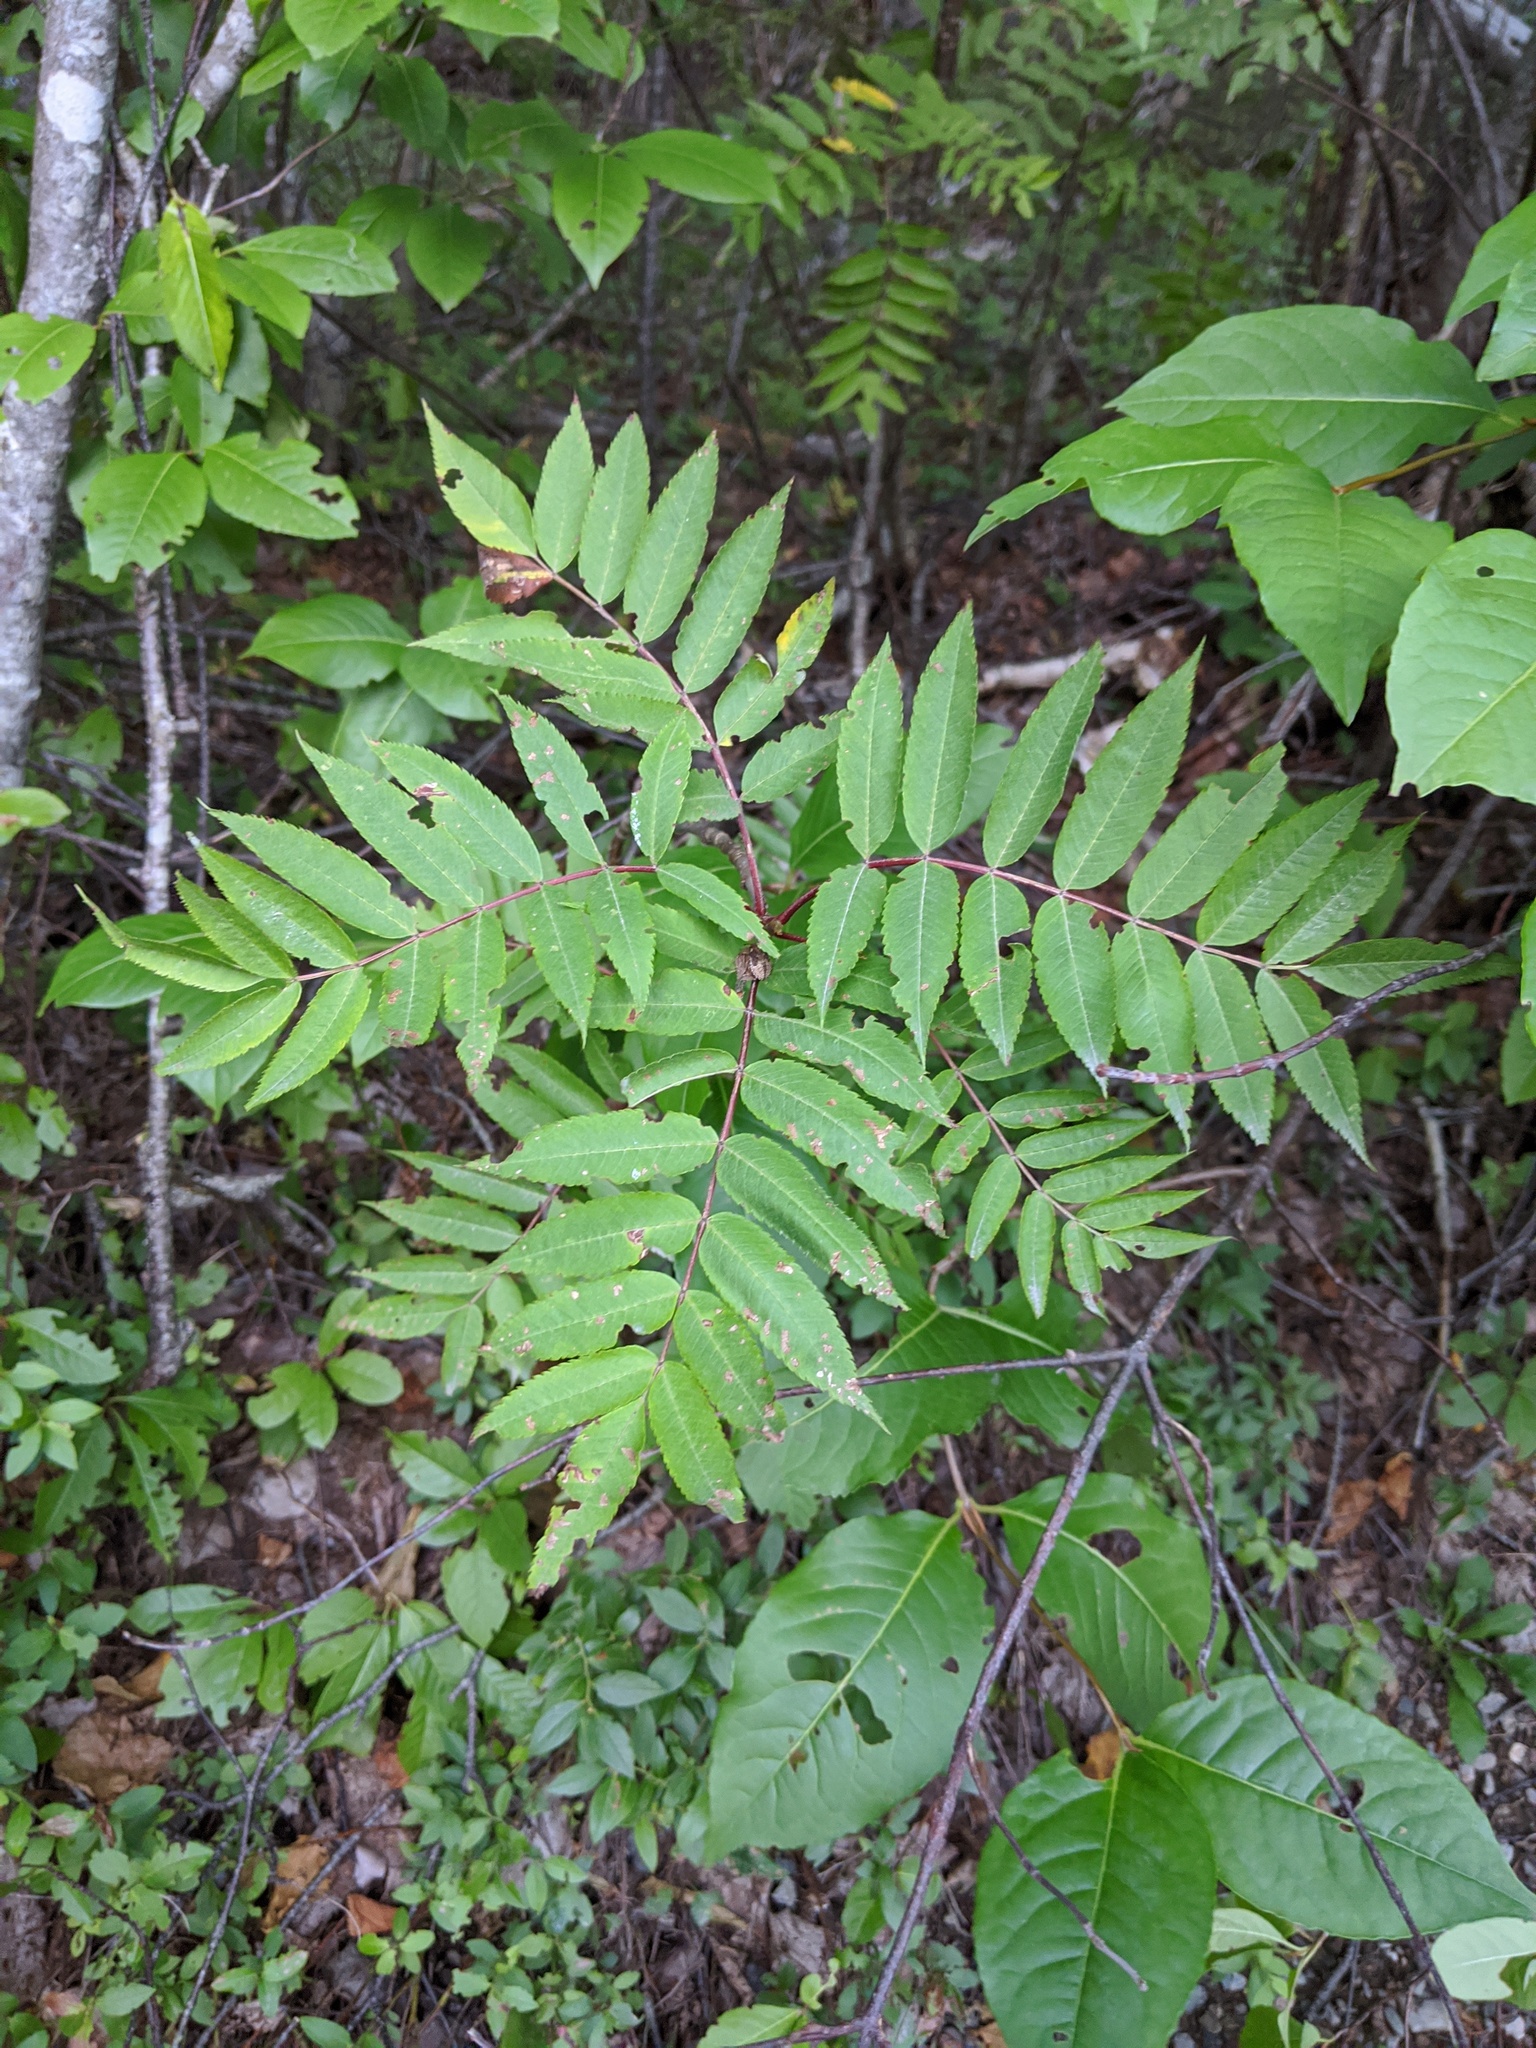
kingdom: Plantae
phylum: Tracheophyta
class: Magnoliopsida
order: Rosales
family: Rosaceae
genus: Sorbus
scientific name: Sorbus americana
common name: American mountain-ash
